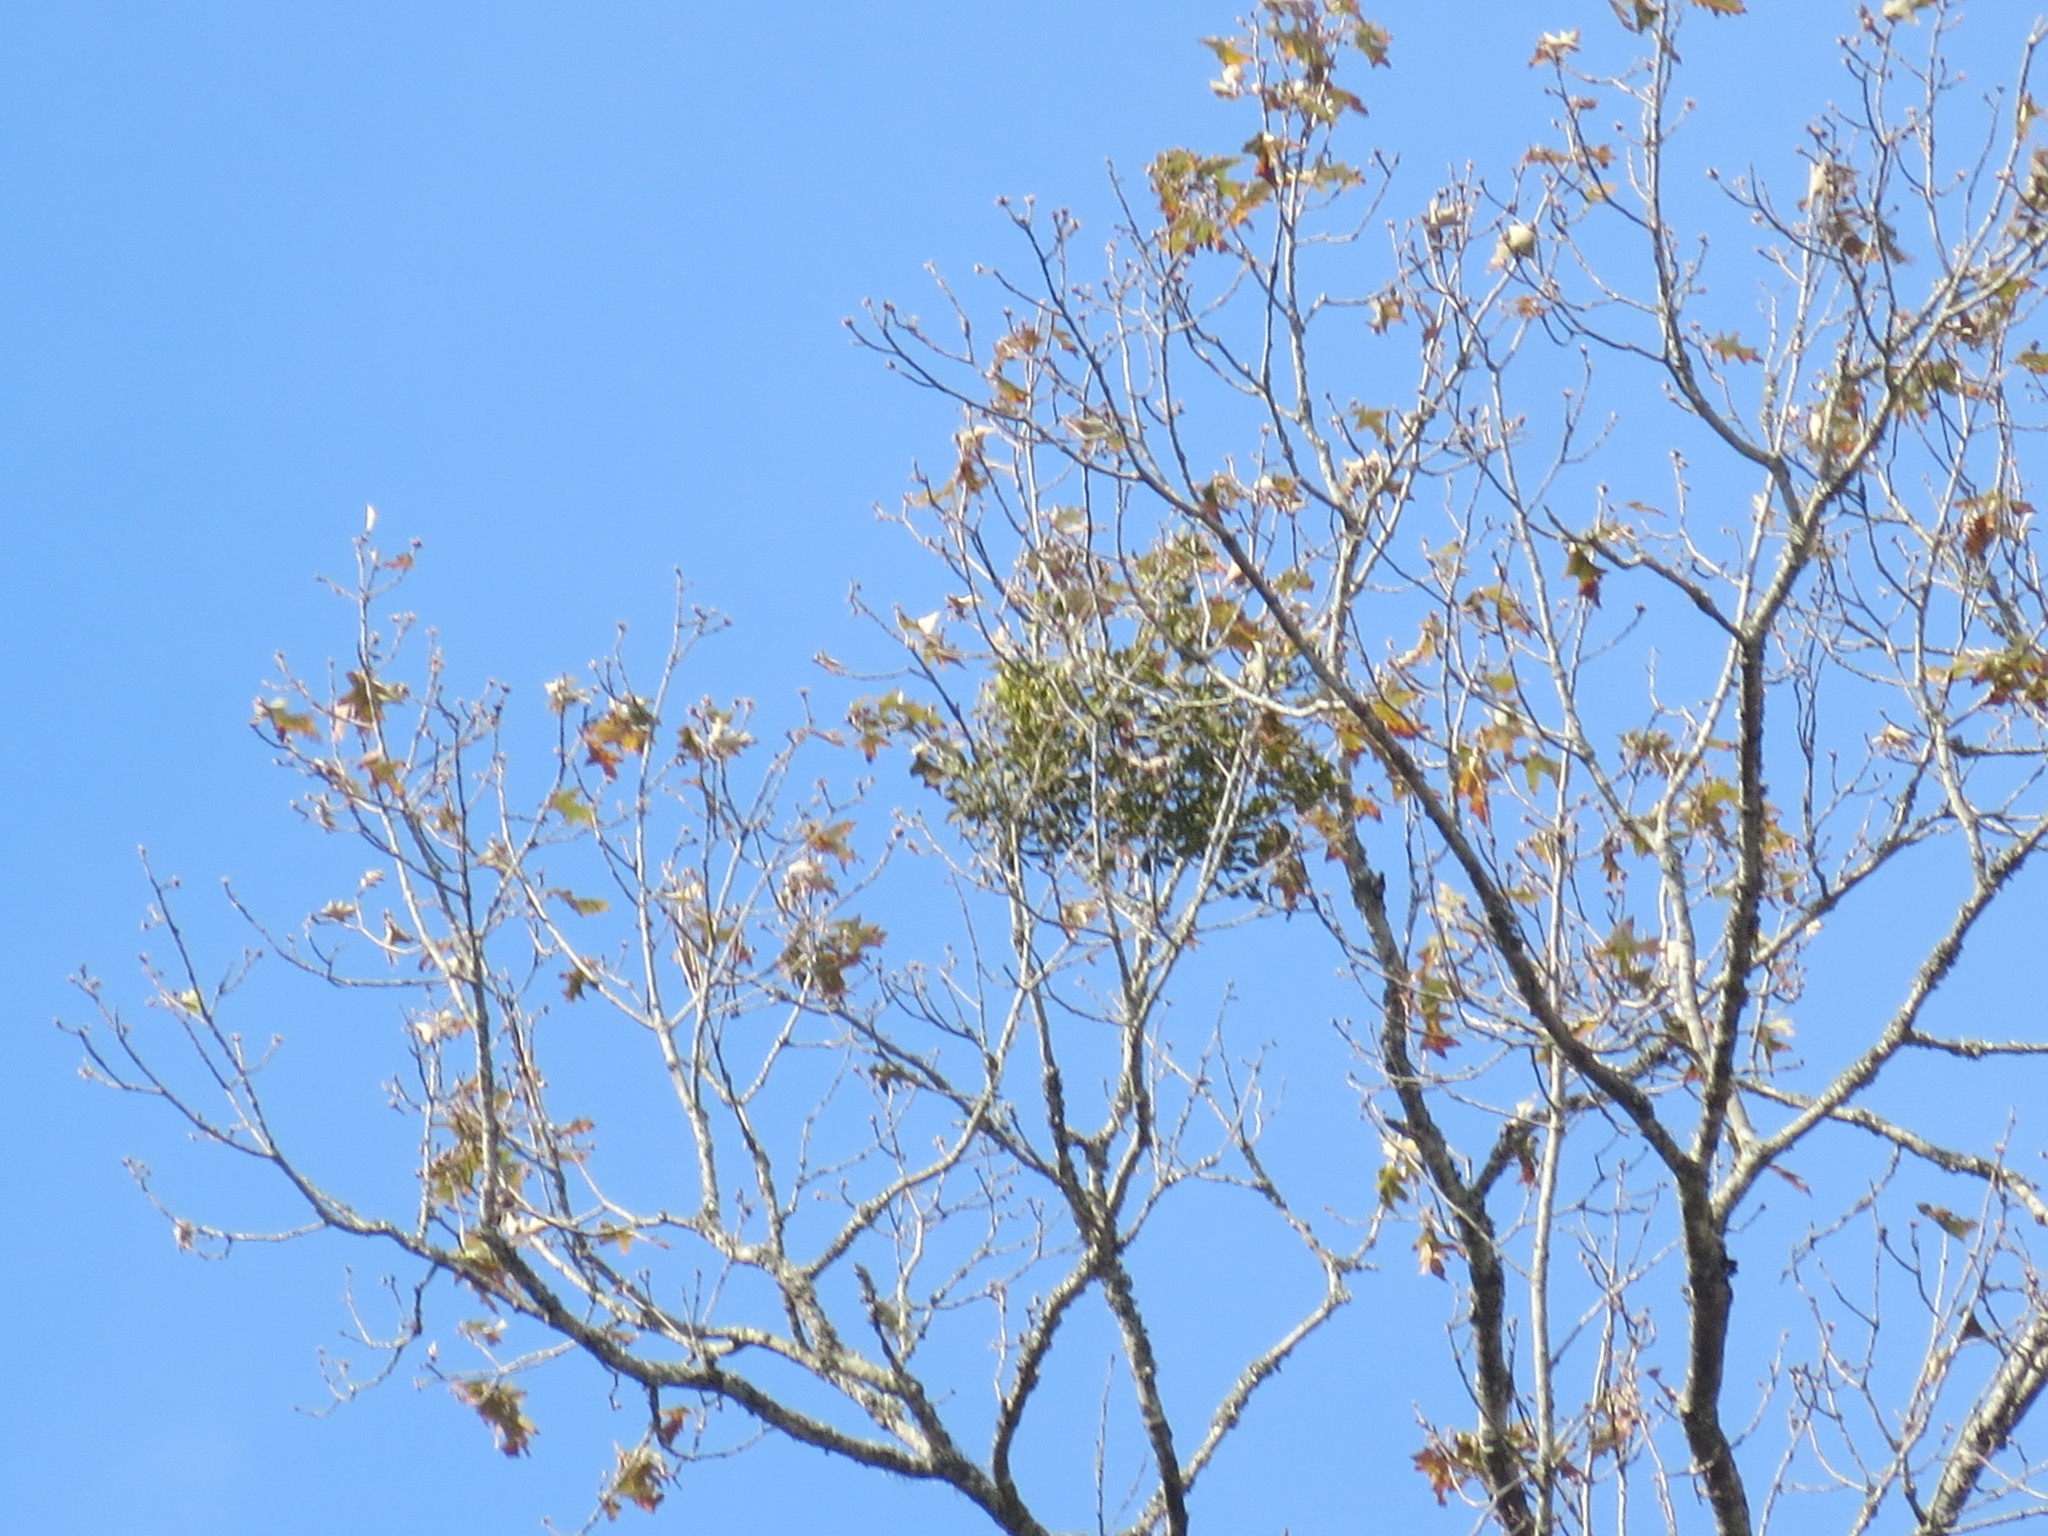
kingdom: Plantae
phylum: Tracheophyta
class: Magnoliopsida
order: Santalales
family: Viscaceae
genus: Phoradendron
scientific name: Phoradendron leucarpum
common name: Pacific mistletoe
